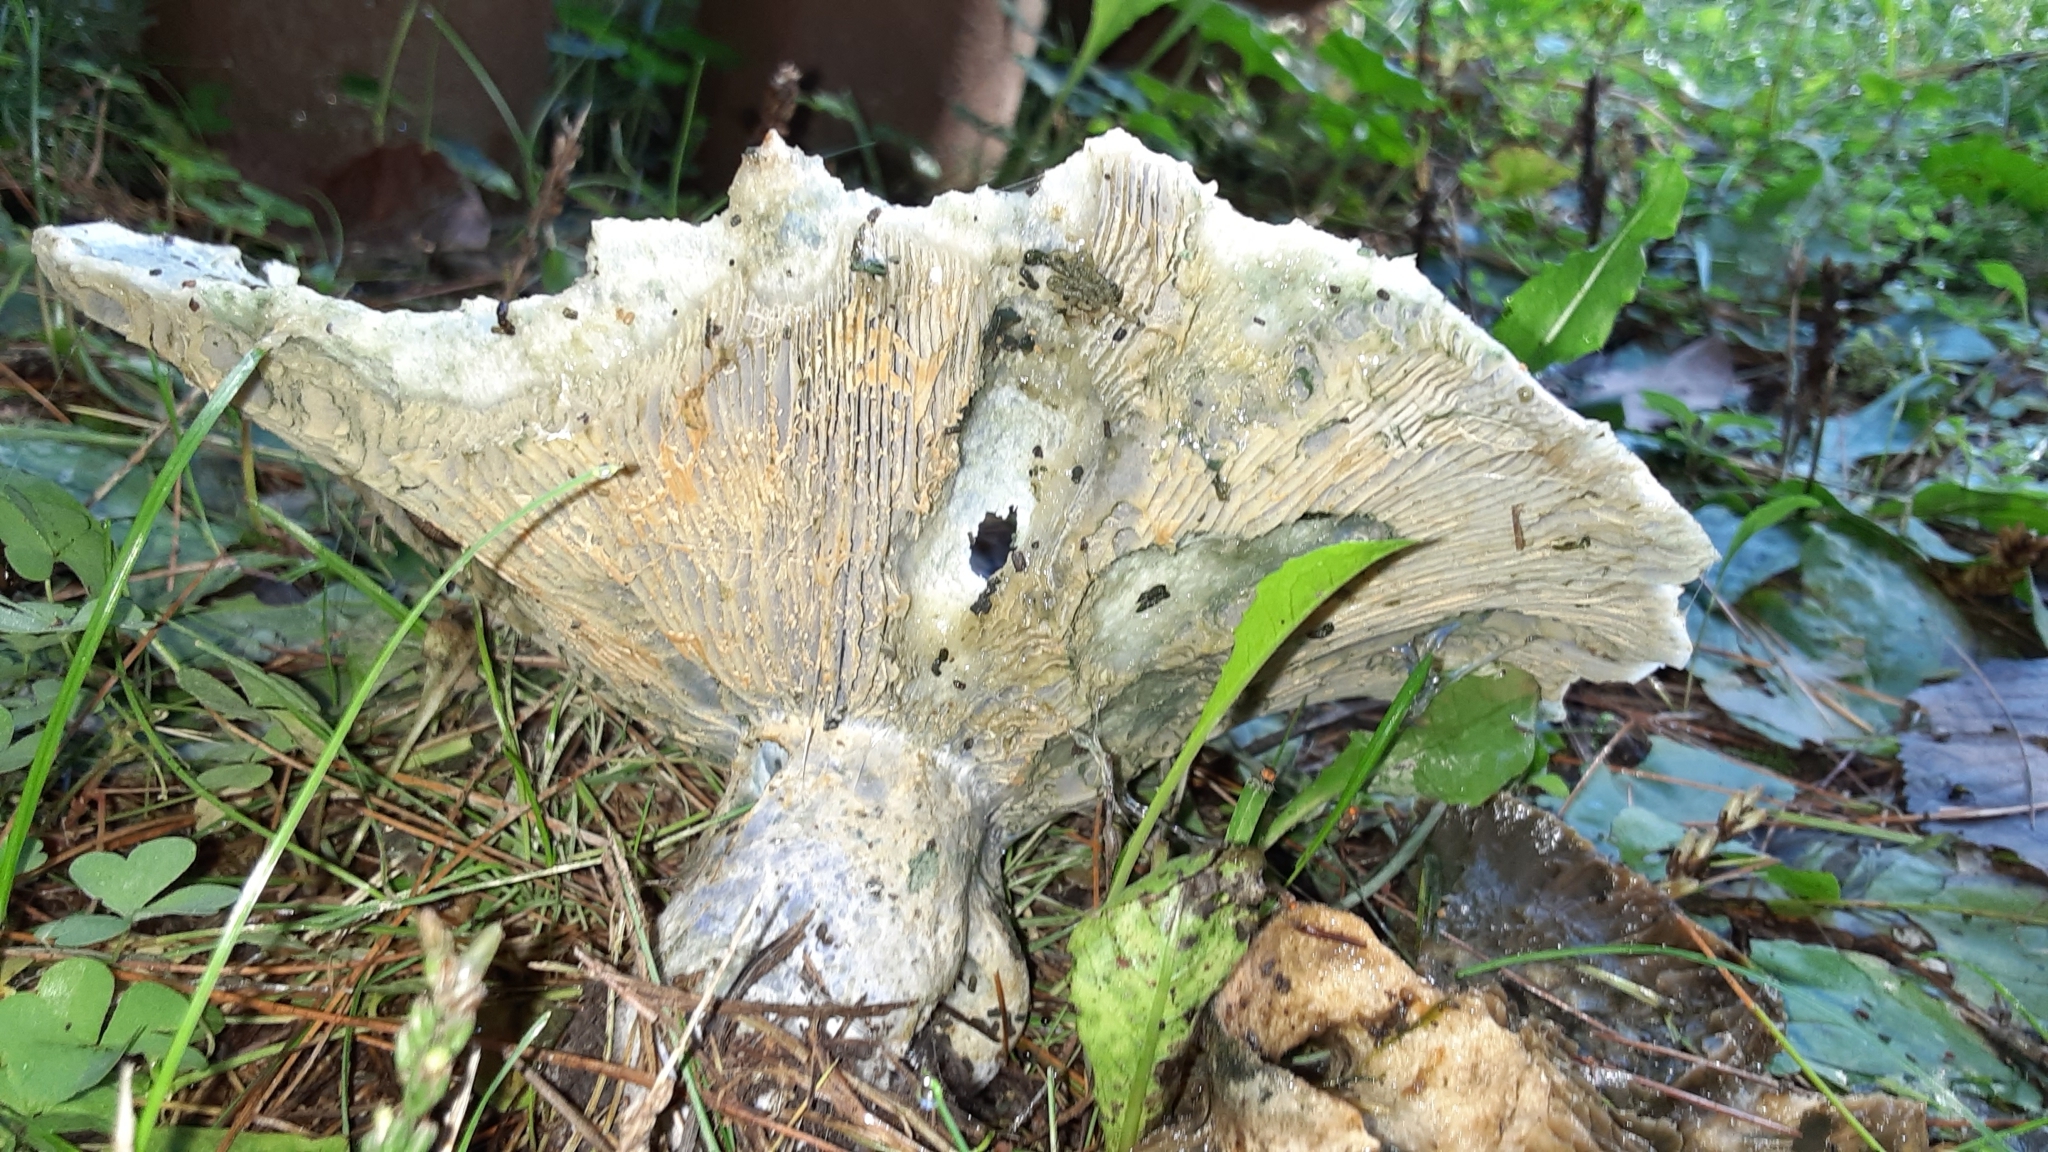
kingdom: Fungi
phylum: Basidiomycota
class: Agaricomycetes
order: Russulales
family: Russulaceae
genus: Lactarius
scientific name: Lactarius indigo
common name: Indigo milk cap
